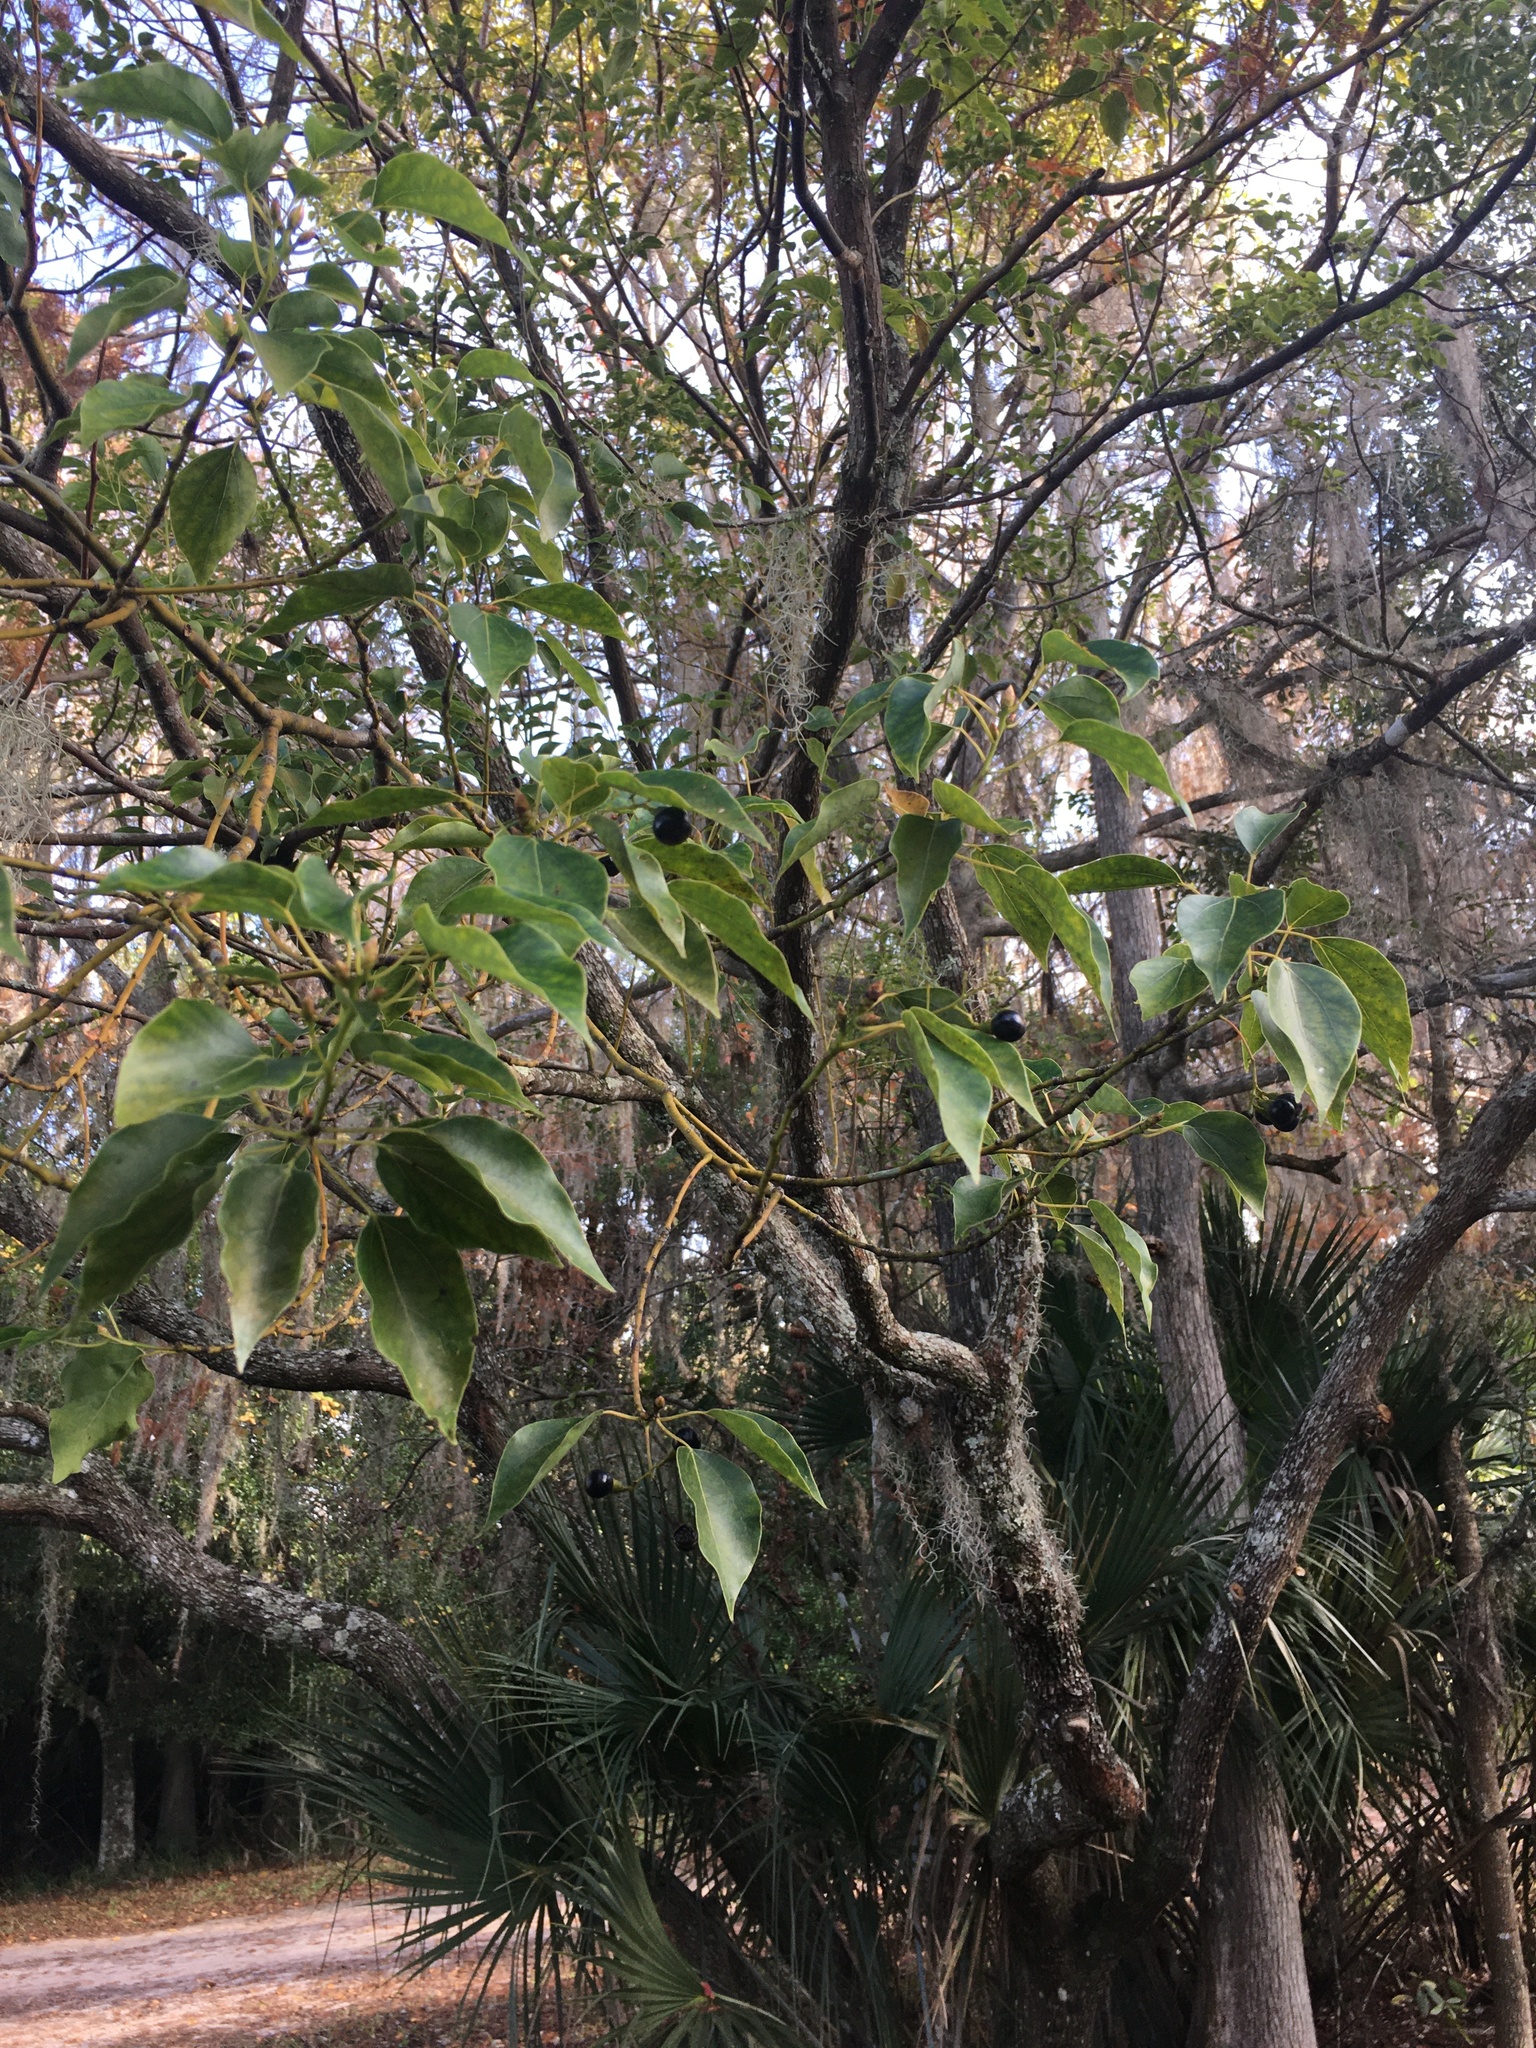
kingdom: Plantae
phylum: Tracheophyta
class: Magnoliopsida
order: Laurales
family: Lauraceae
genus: Cinnamomum
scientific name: Cinnamomum camphora
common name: Camphortree
